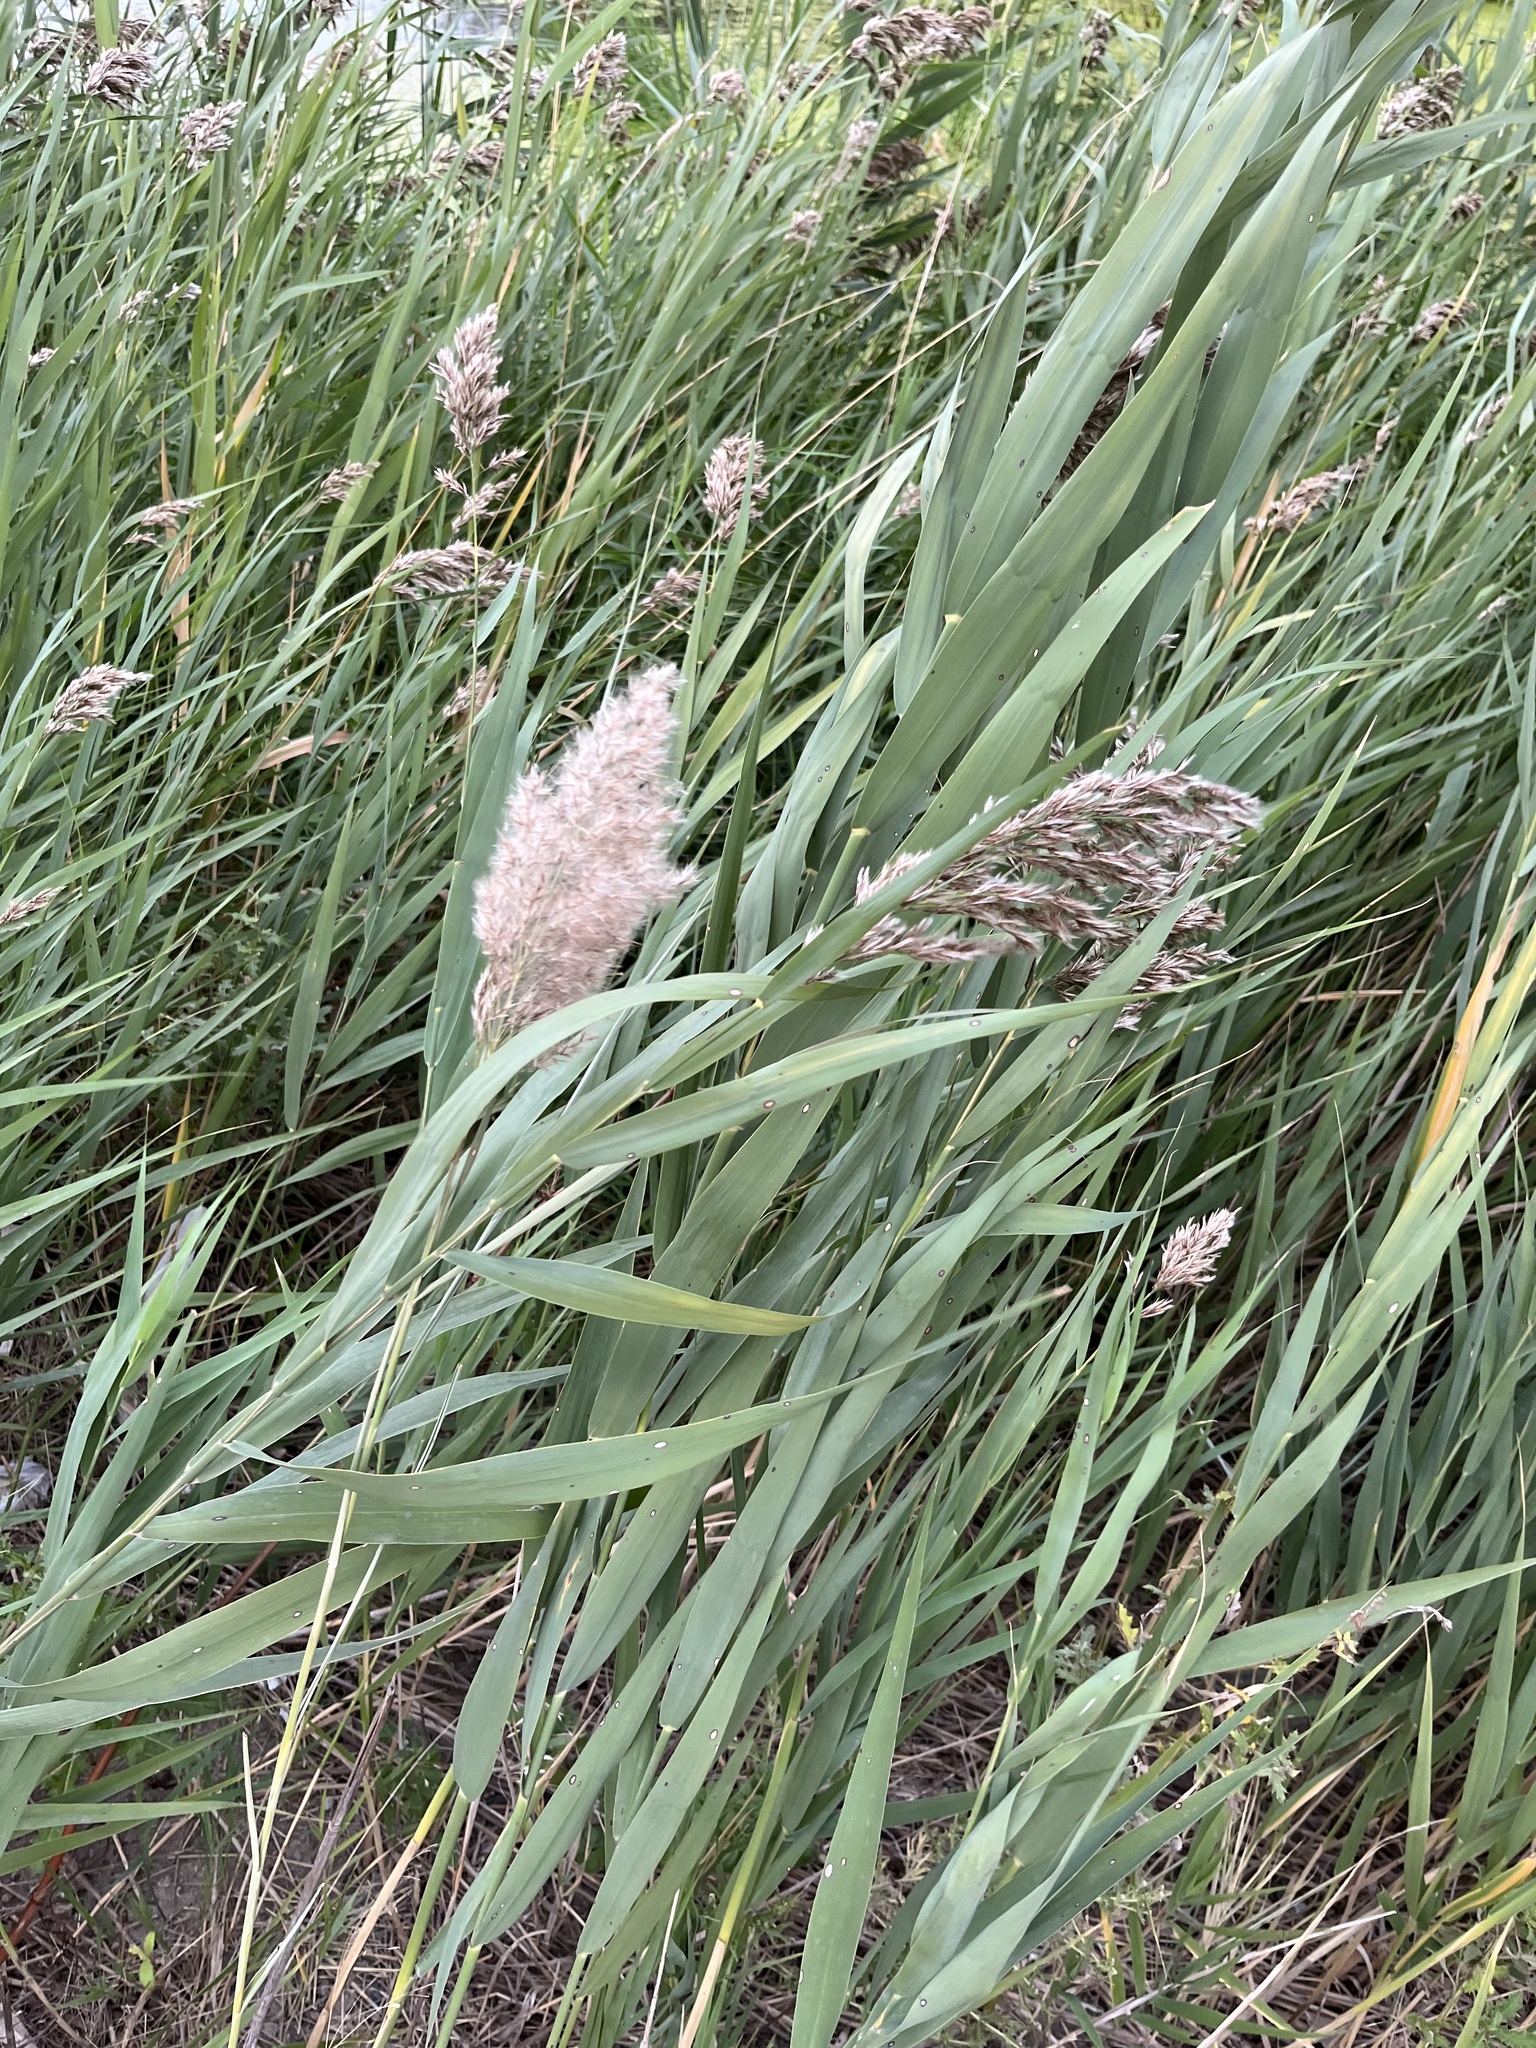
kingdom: Plantae
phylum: Tracheophyta
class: Liliopsida
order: Poales
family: Poaceae
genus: Phragmites
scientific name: Phragmites australis
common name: Common reed
